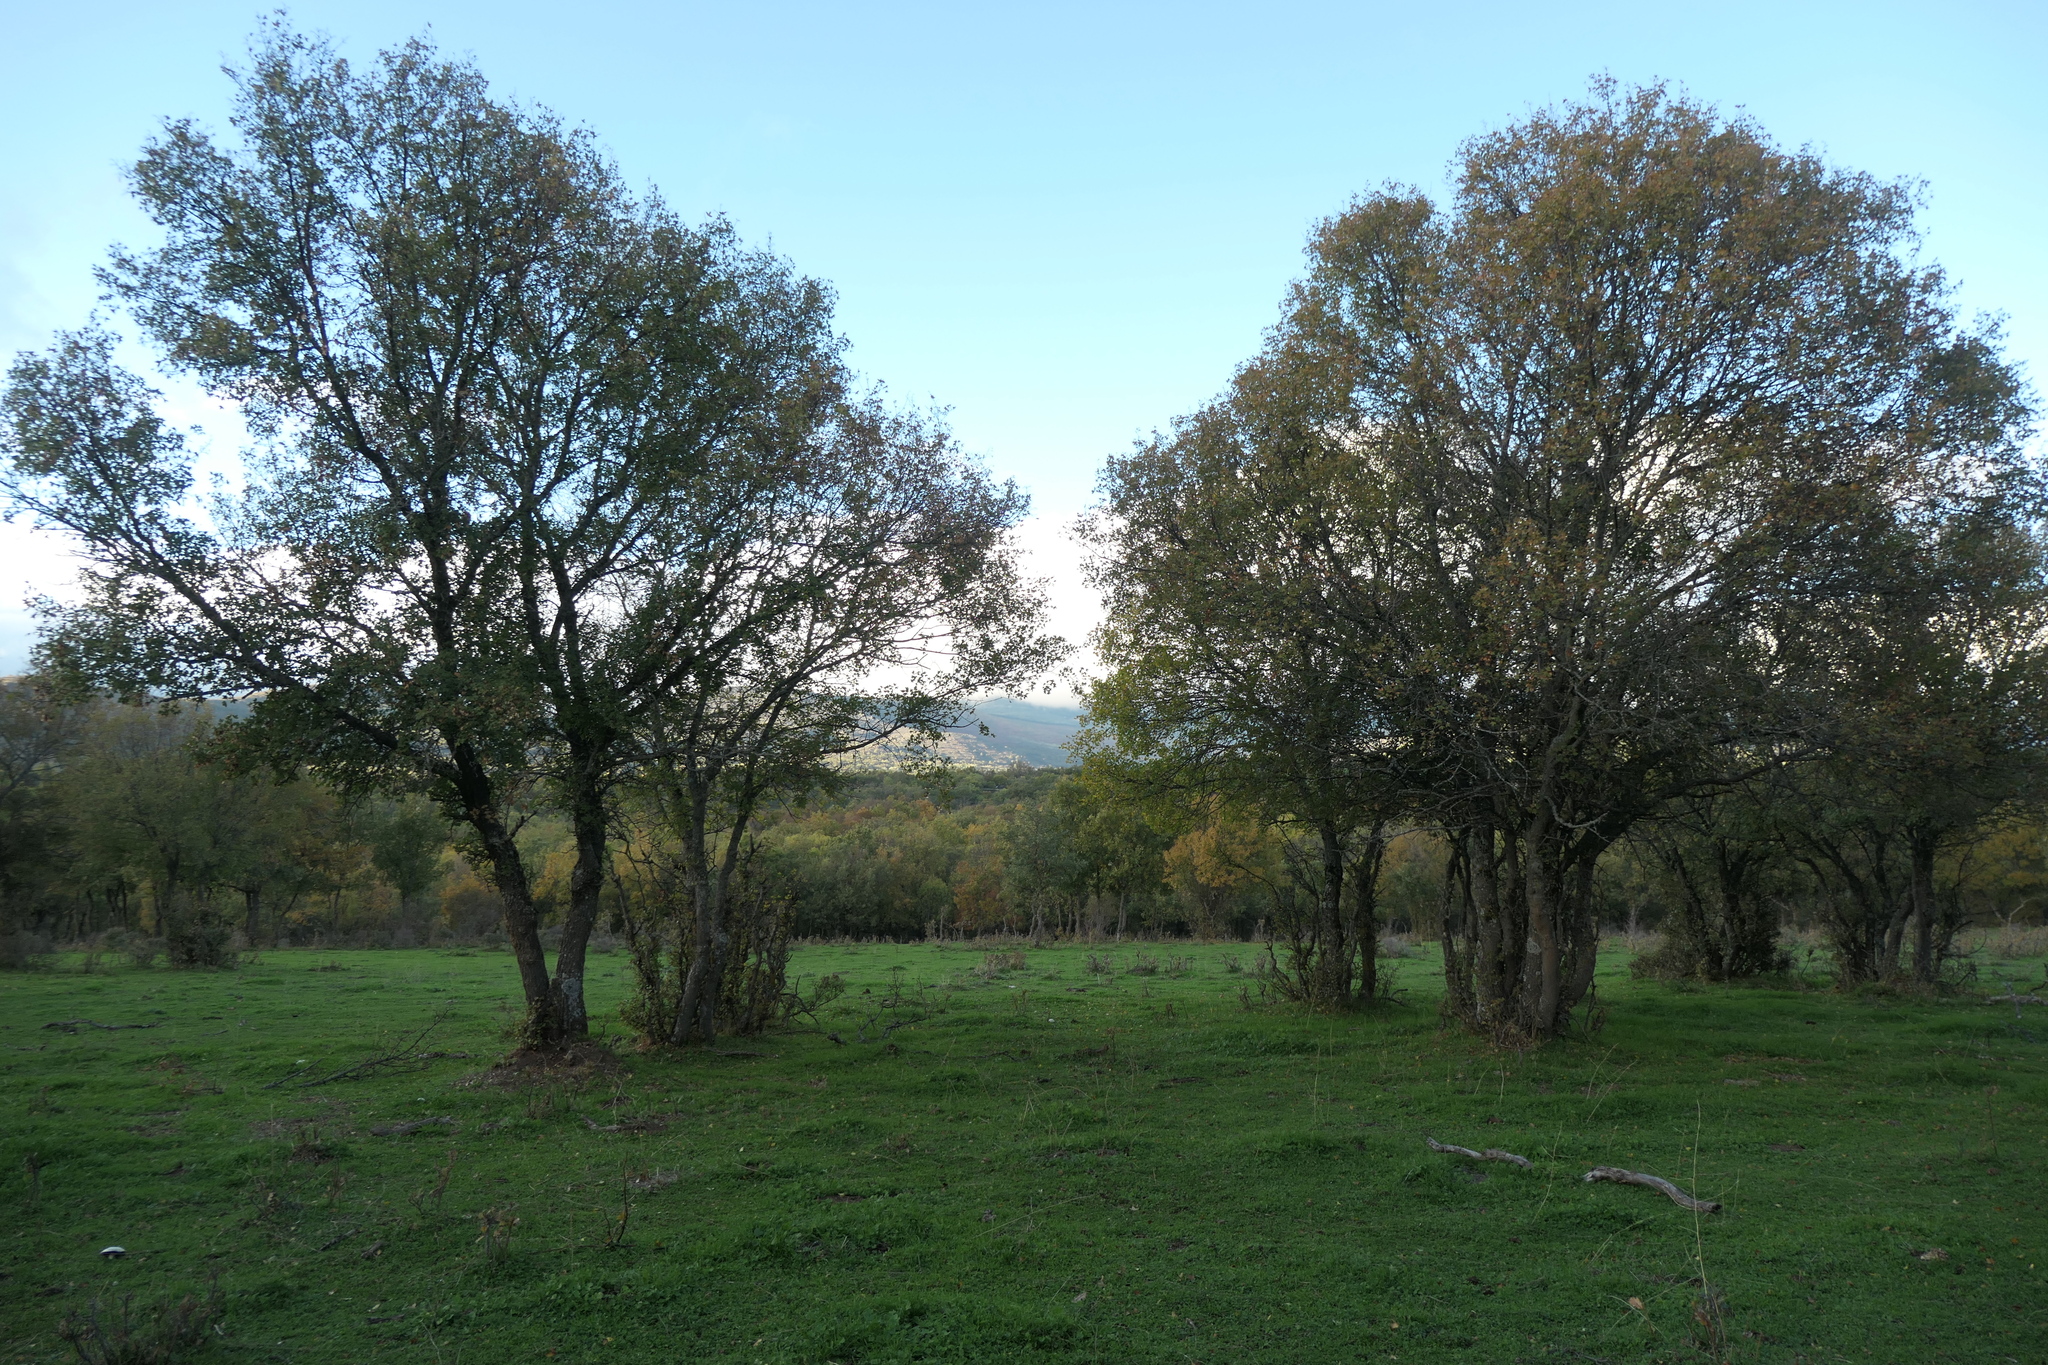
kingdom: Plantae
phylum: Tracheophyta
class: Magnoliopsida
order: Sapindales
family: Sapindaceae
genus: Acer
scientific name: Acer monspessulanum
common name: Montpellier maple
